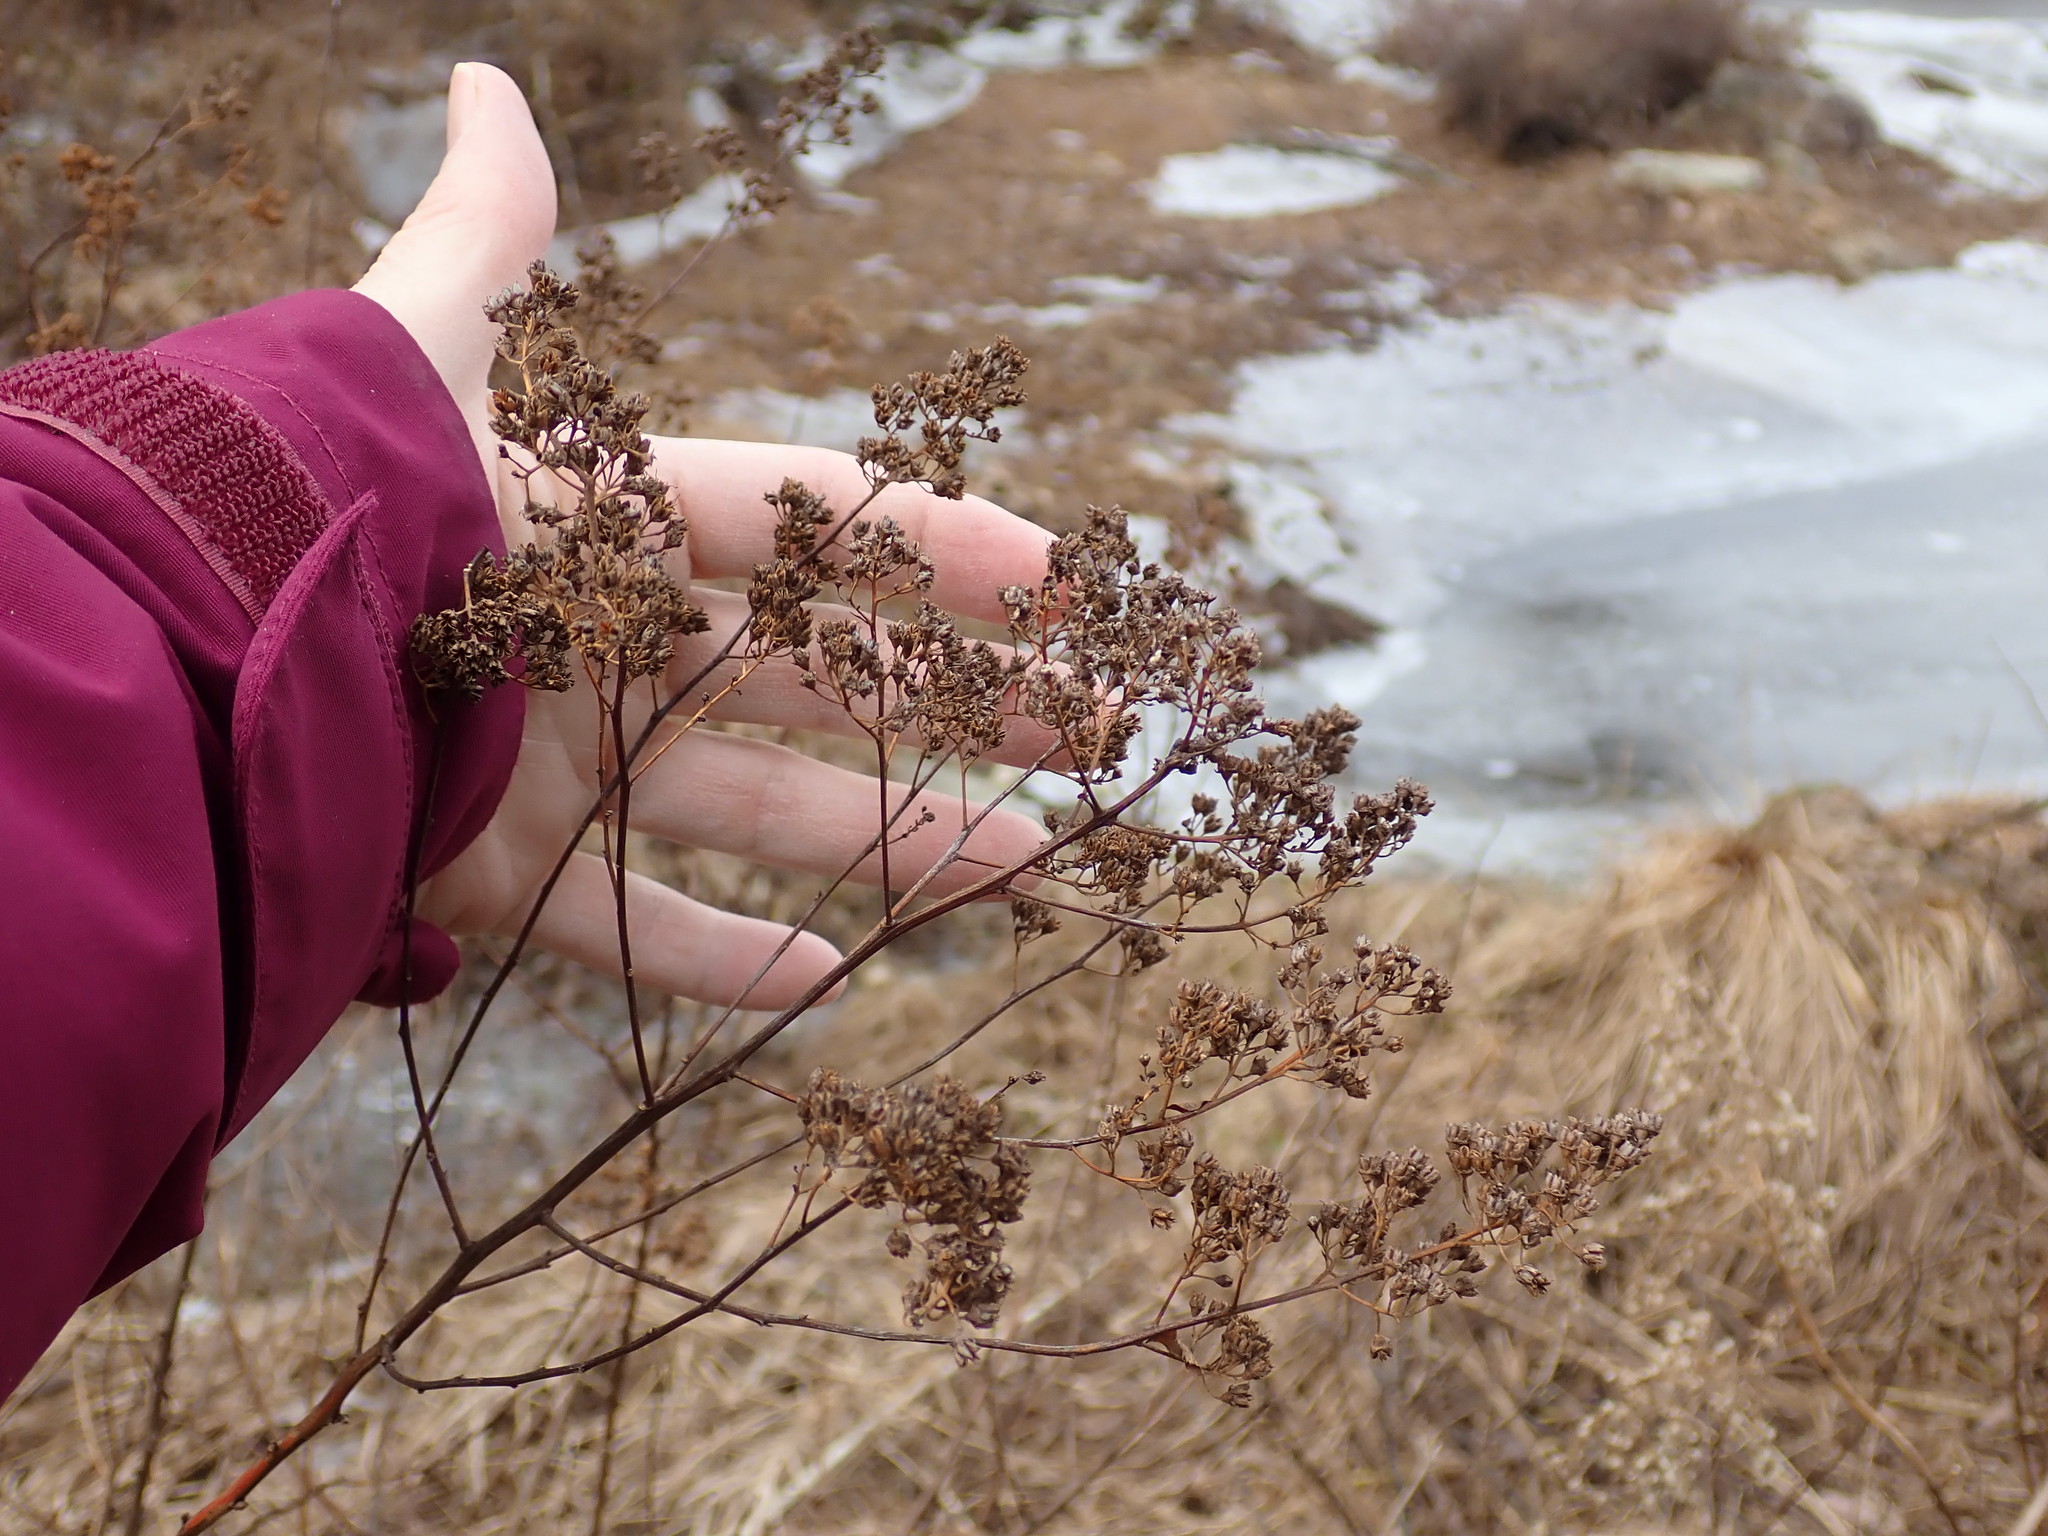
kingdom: Plantae
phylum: Tracheophyta
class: Magnoliopsida
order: Rosales
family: Rosaceae
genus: Spiraea
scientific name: Spiraea alba
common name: Pale bridewort
